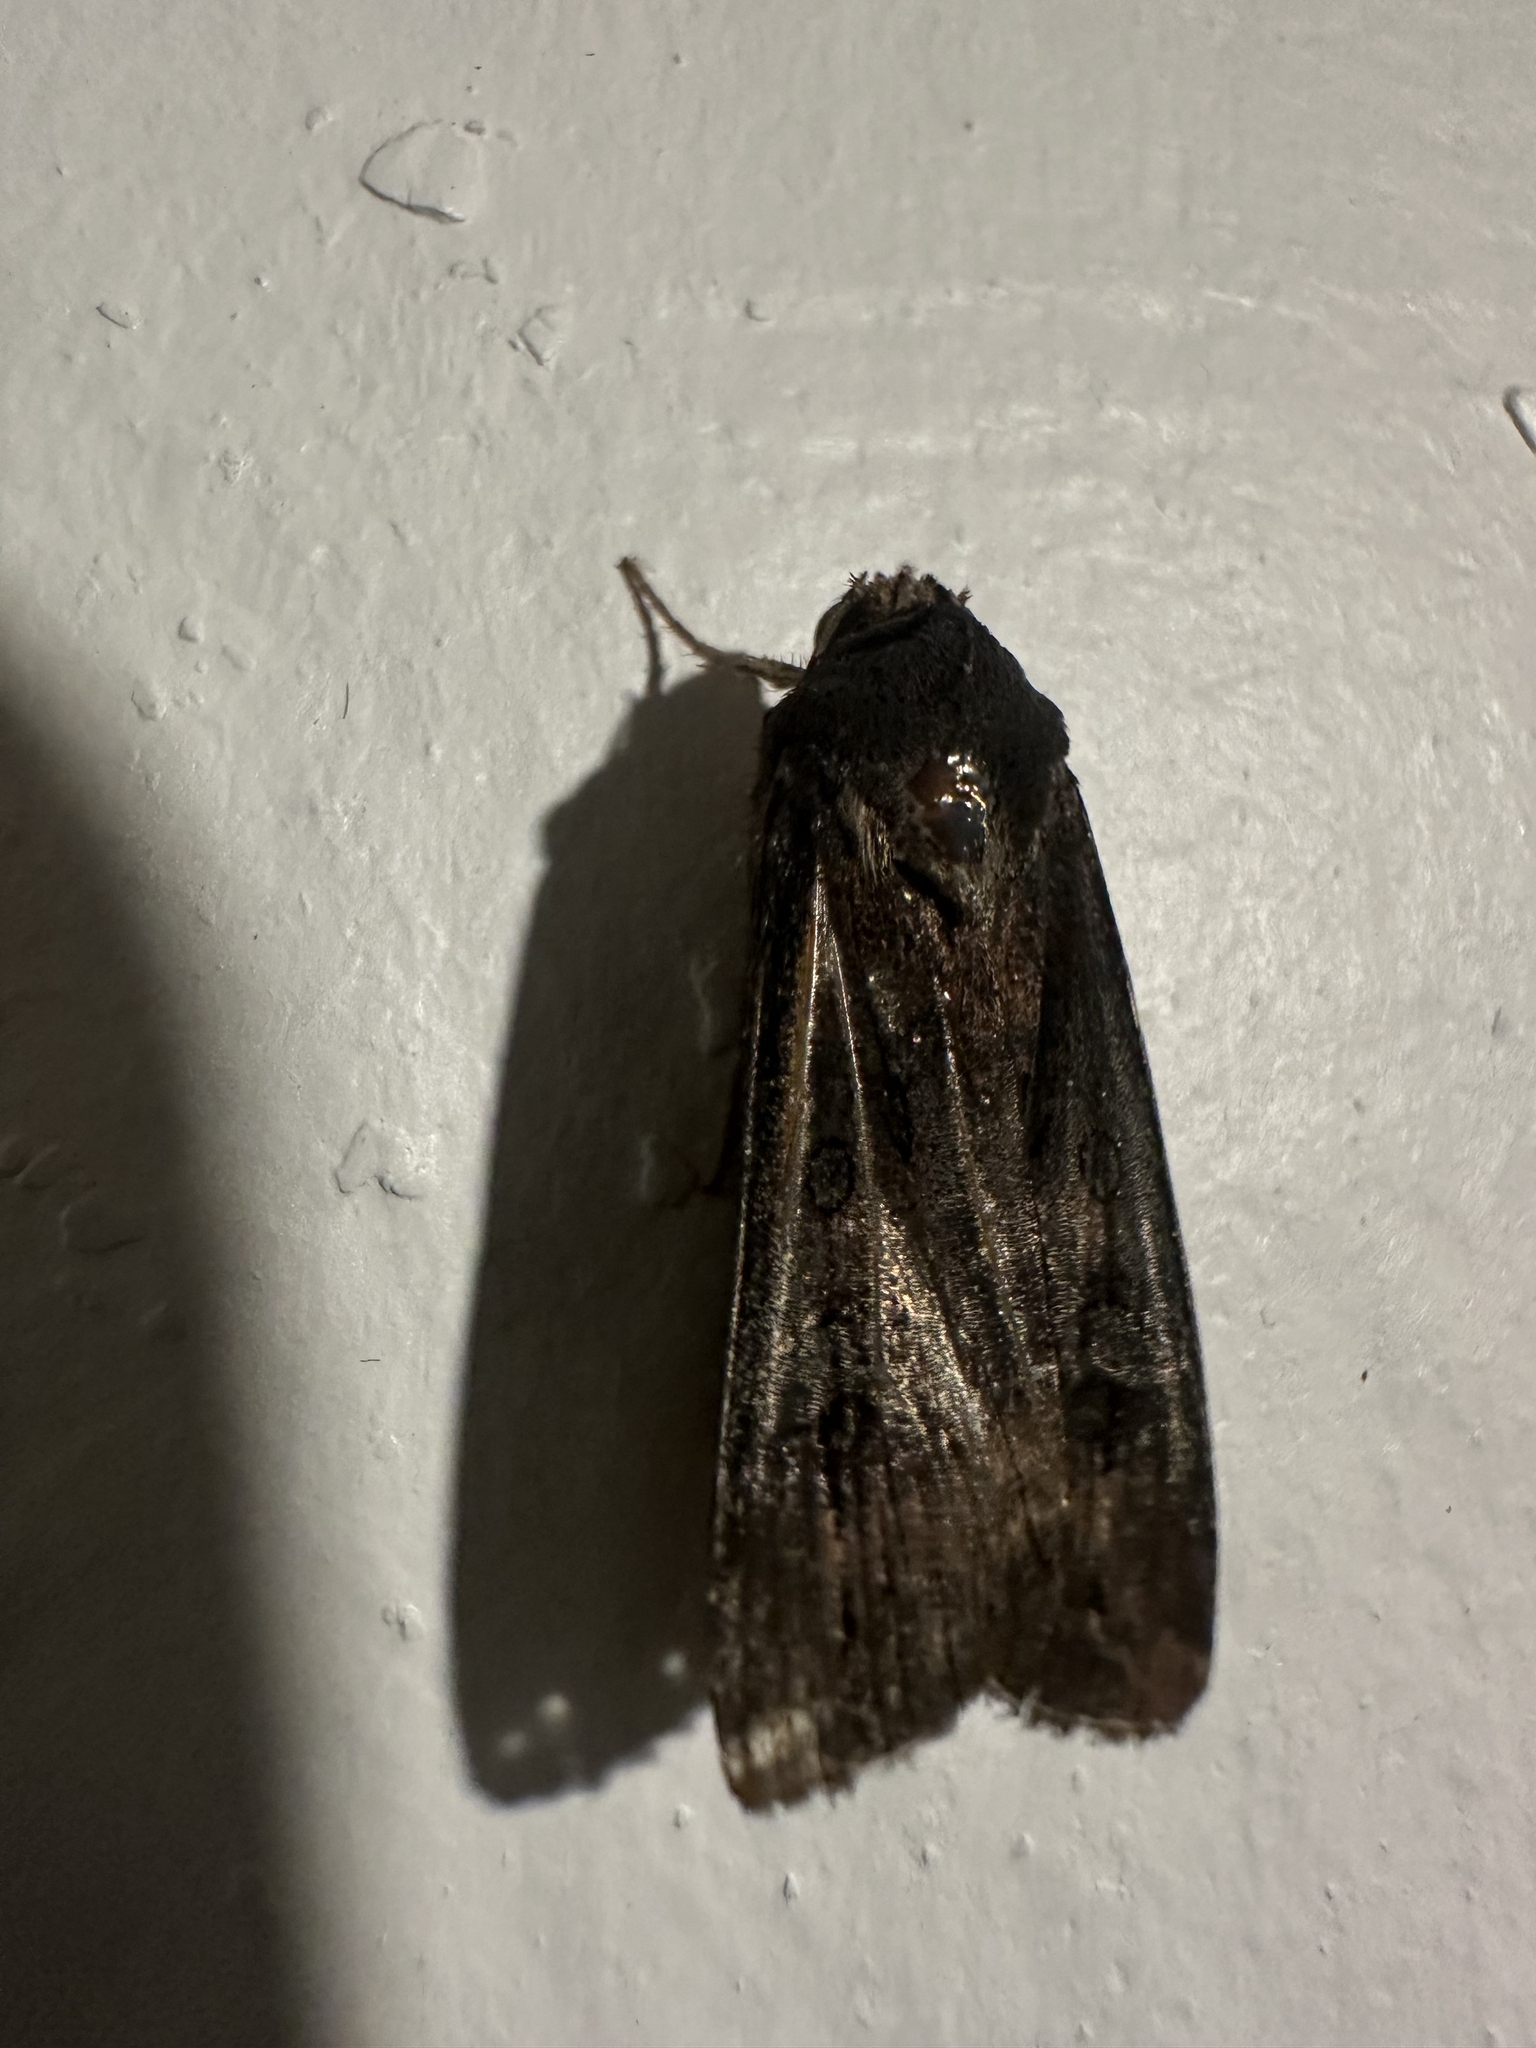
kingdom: Animalia
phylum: Arthropoda
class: Insecta
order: Lepidoptera
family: Noctuidae
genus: Agrotis
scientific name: Agrotis ipsilon
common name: Dark sword-grass
